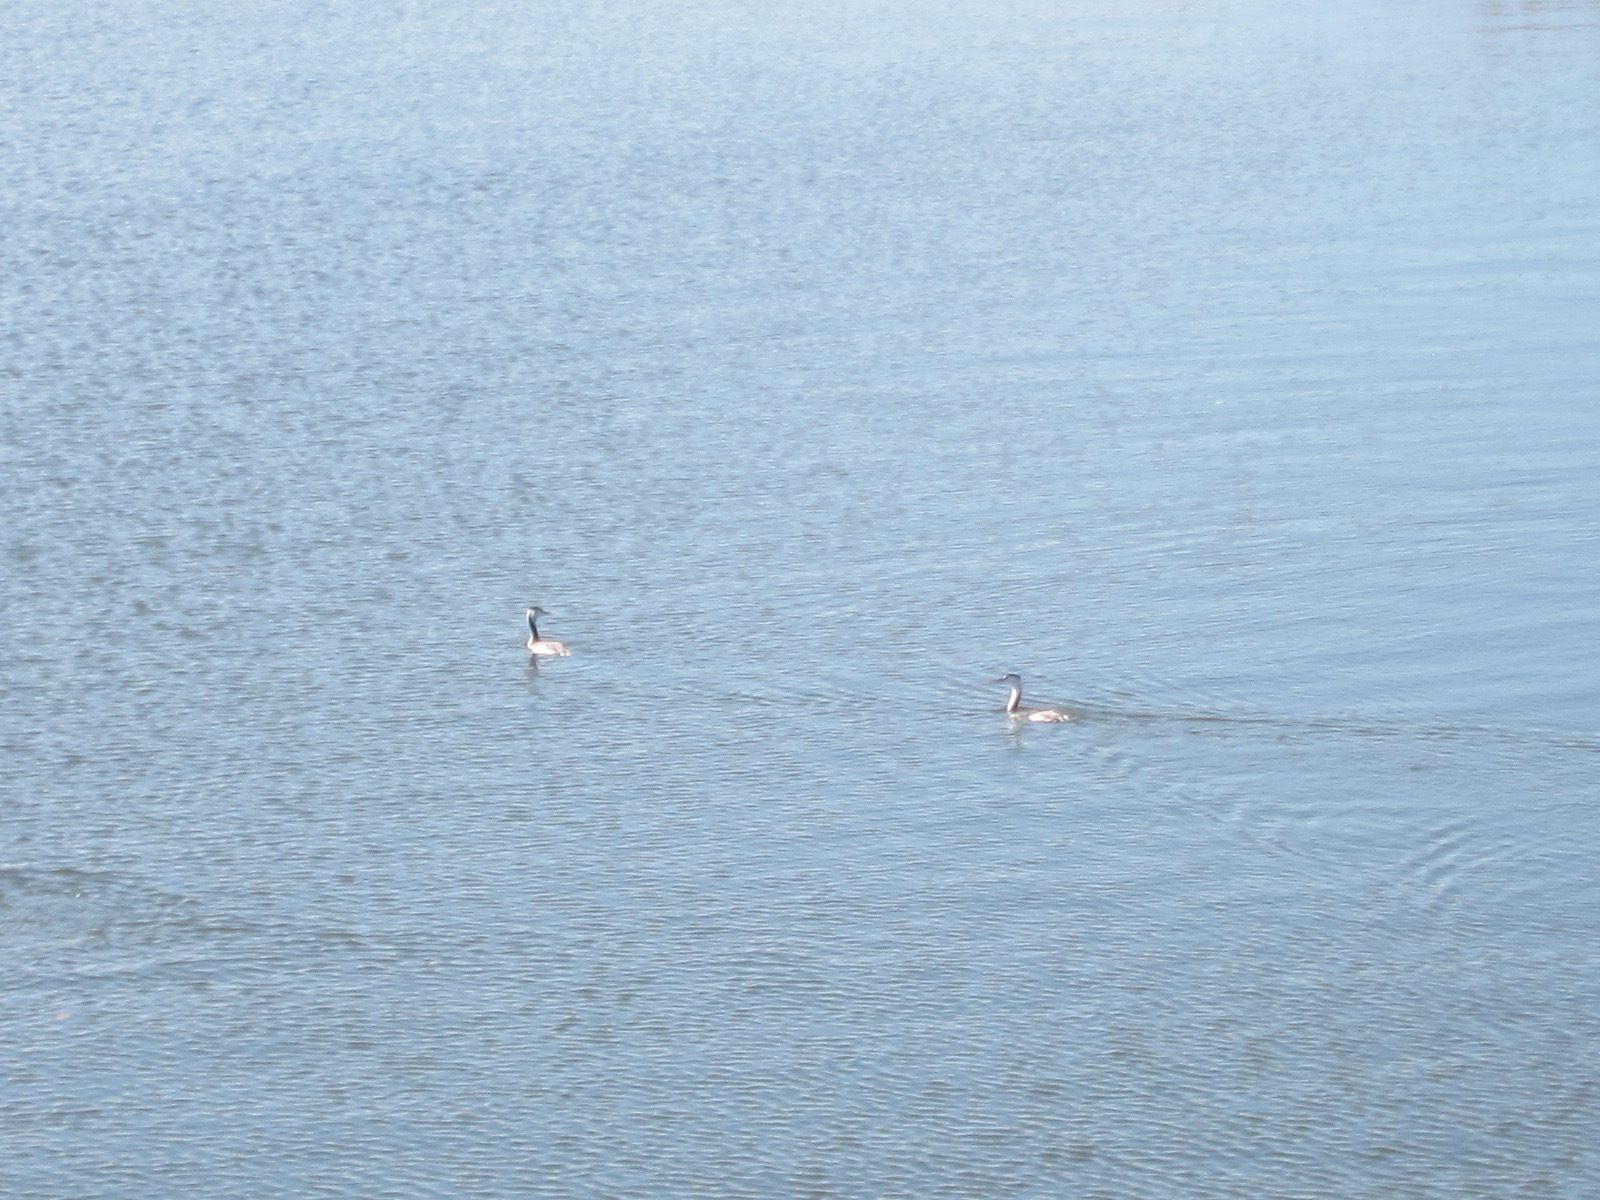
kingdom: Animalia
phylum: Chordata
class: Aves
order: Podicipediformes
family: Podicipedidae
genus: Podiceps
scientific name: Podiceps cristatus
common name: Great crested grebe
